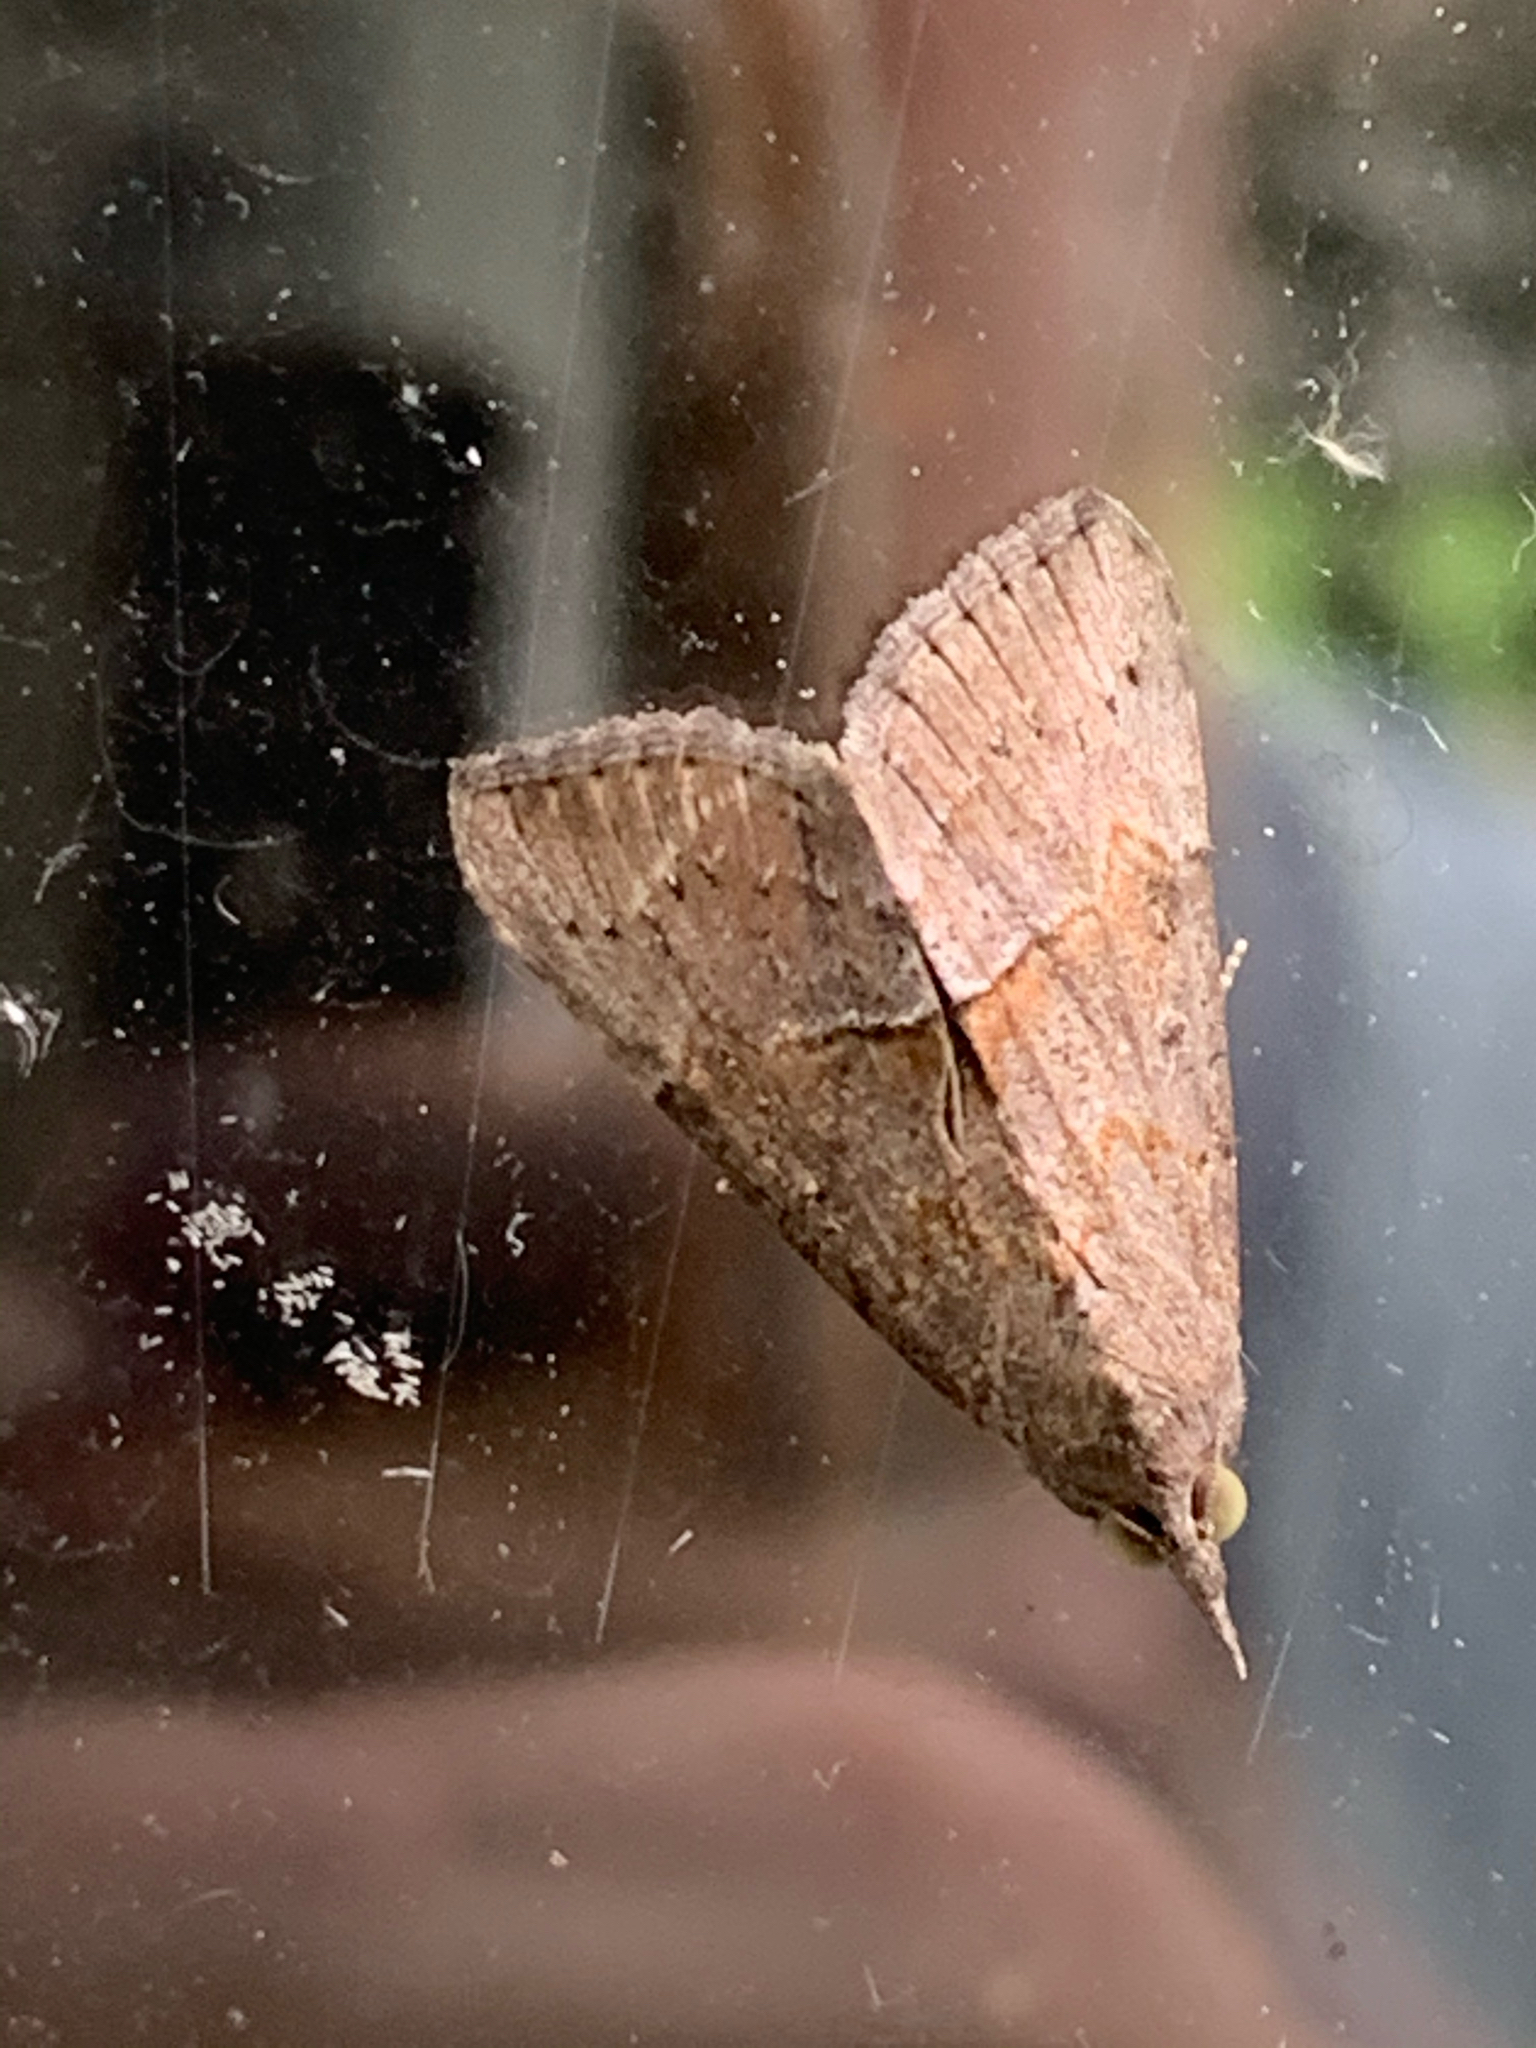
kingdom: Animalia
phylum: Arthropoda
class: Insecta
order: Lepidoptera
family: Erebidae
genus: Hypena
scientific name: Hypena scabra
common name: Green cloverworm
